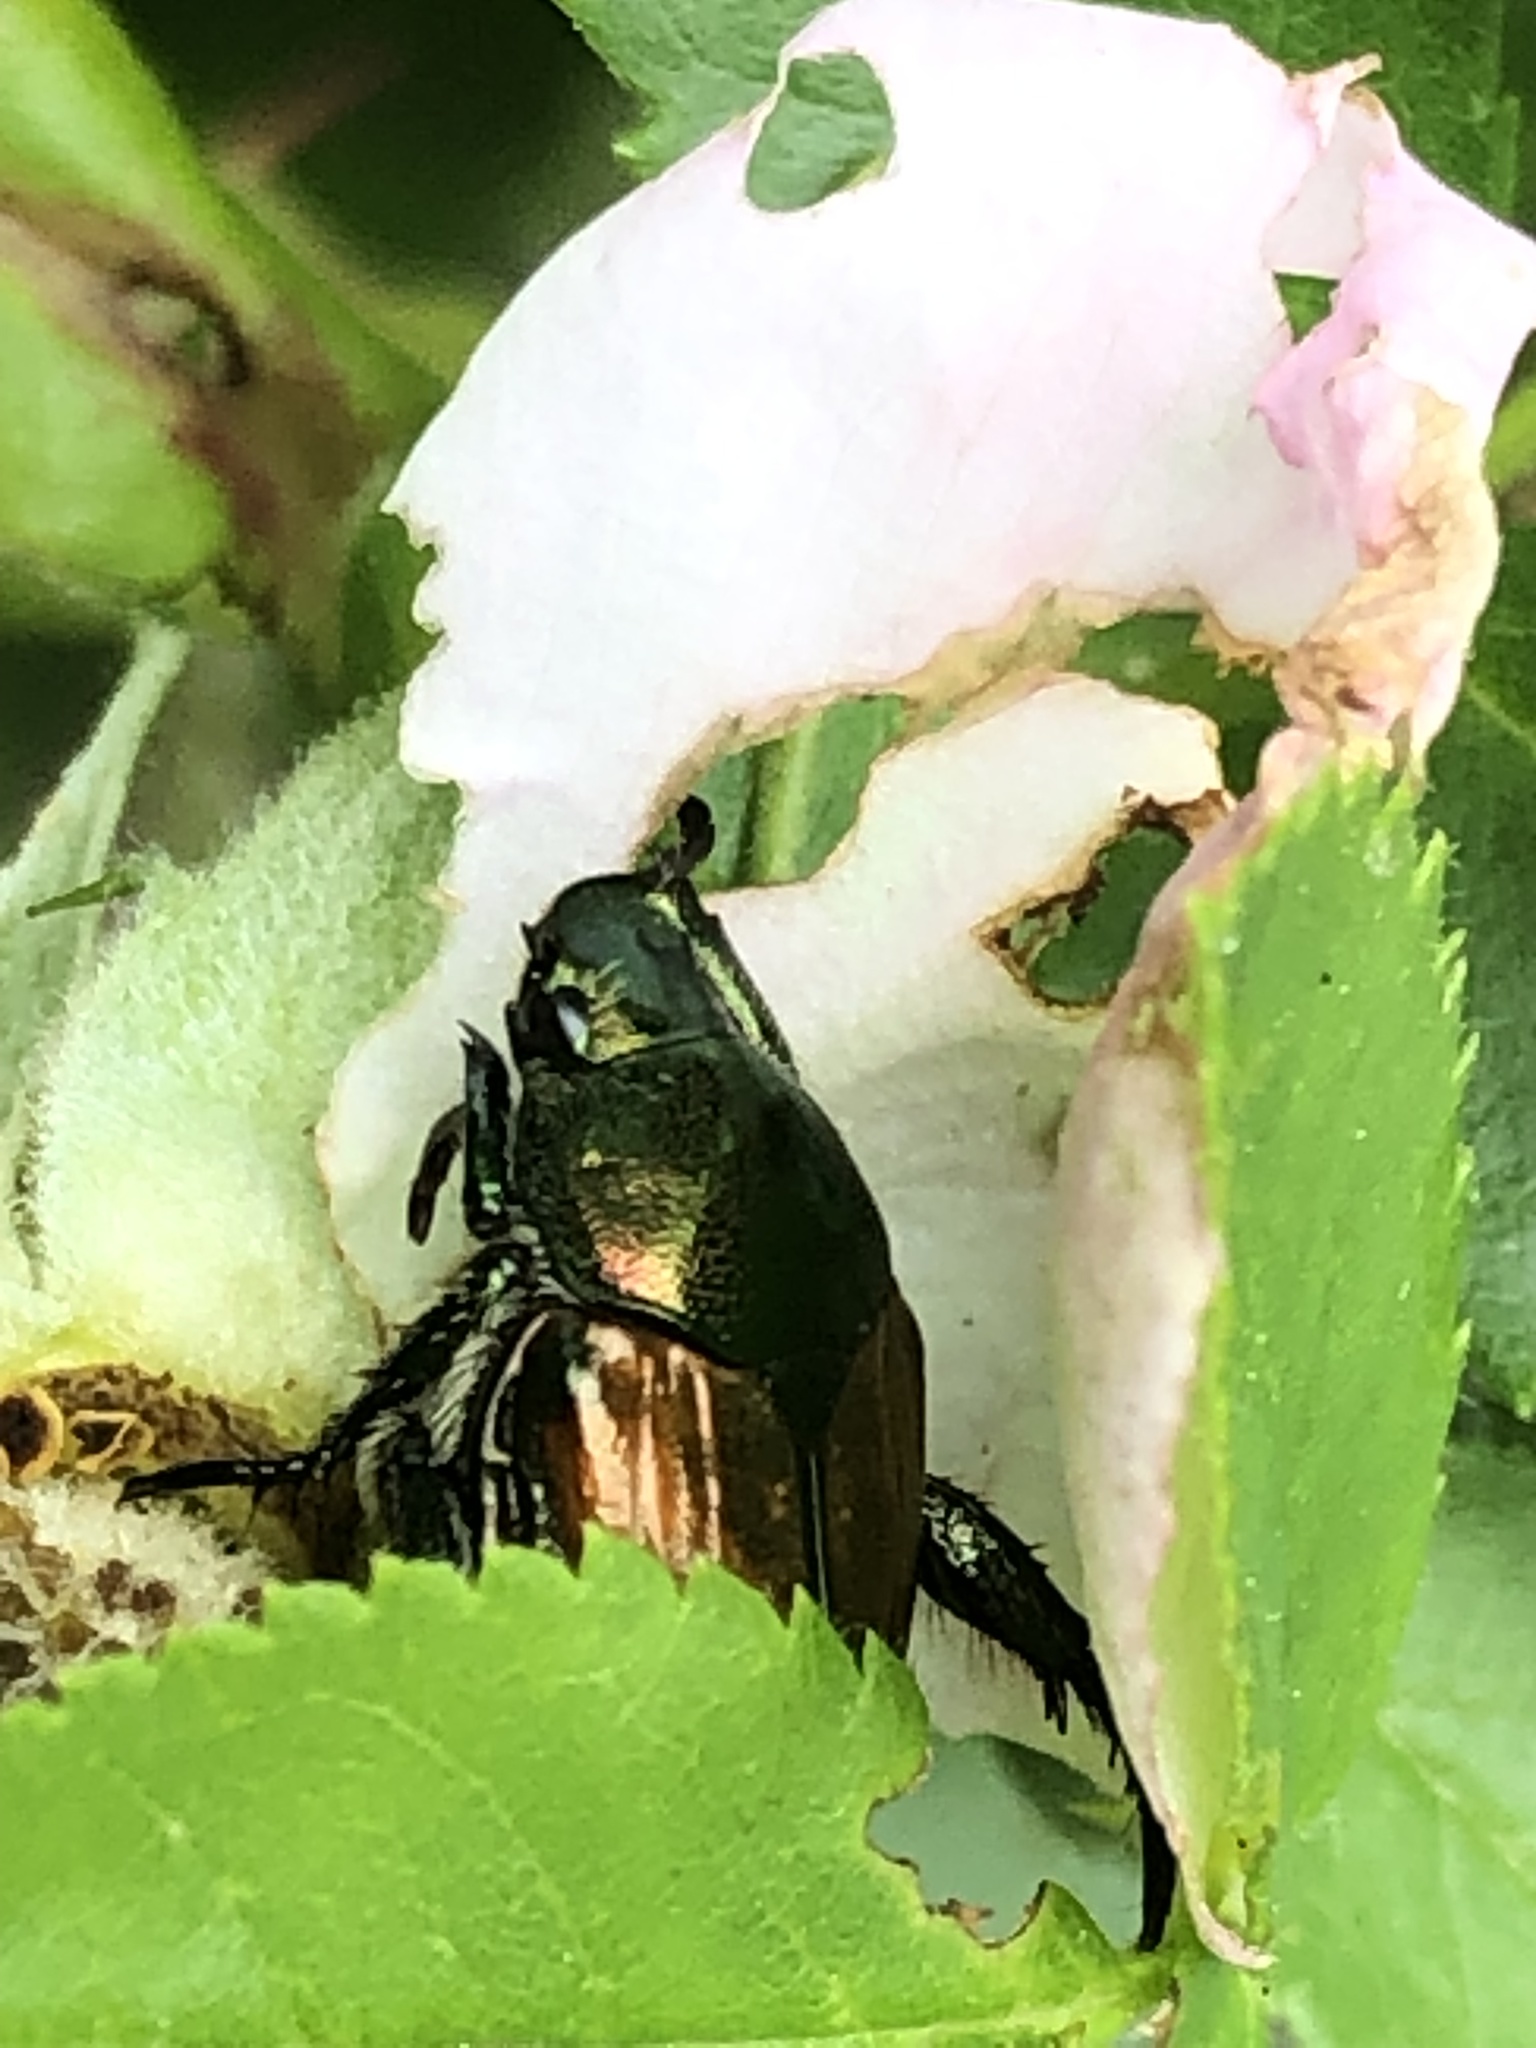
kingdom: Animalia
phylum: Arthropoda
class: Insecta
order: Coleoptera
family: Scarabaeidae
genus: Popillia
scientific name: Popillia japonica
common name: Japanese beetle
